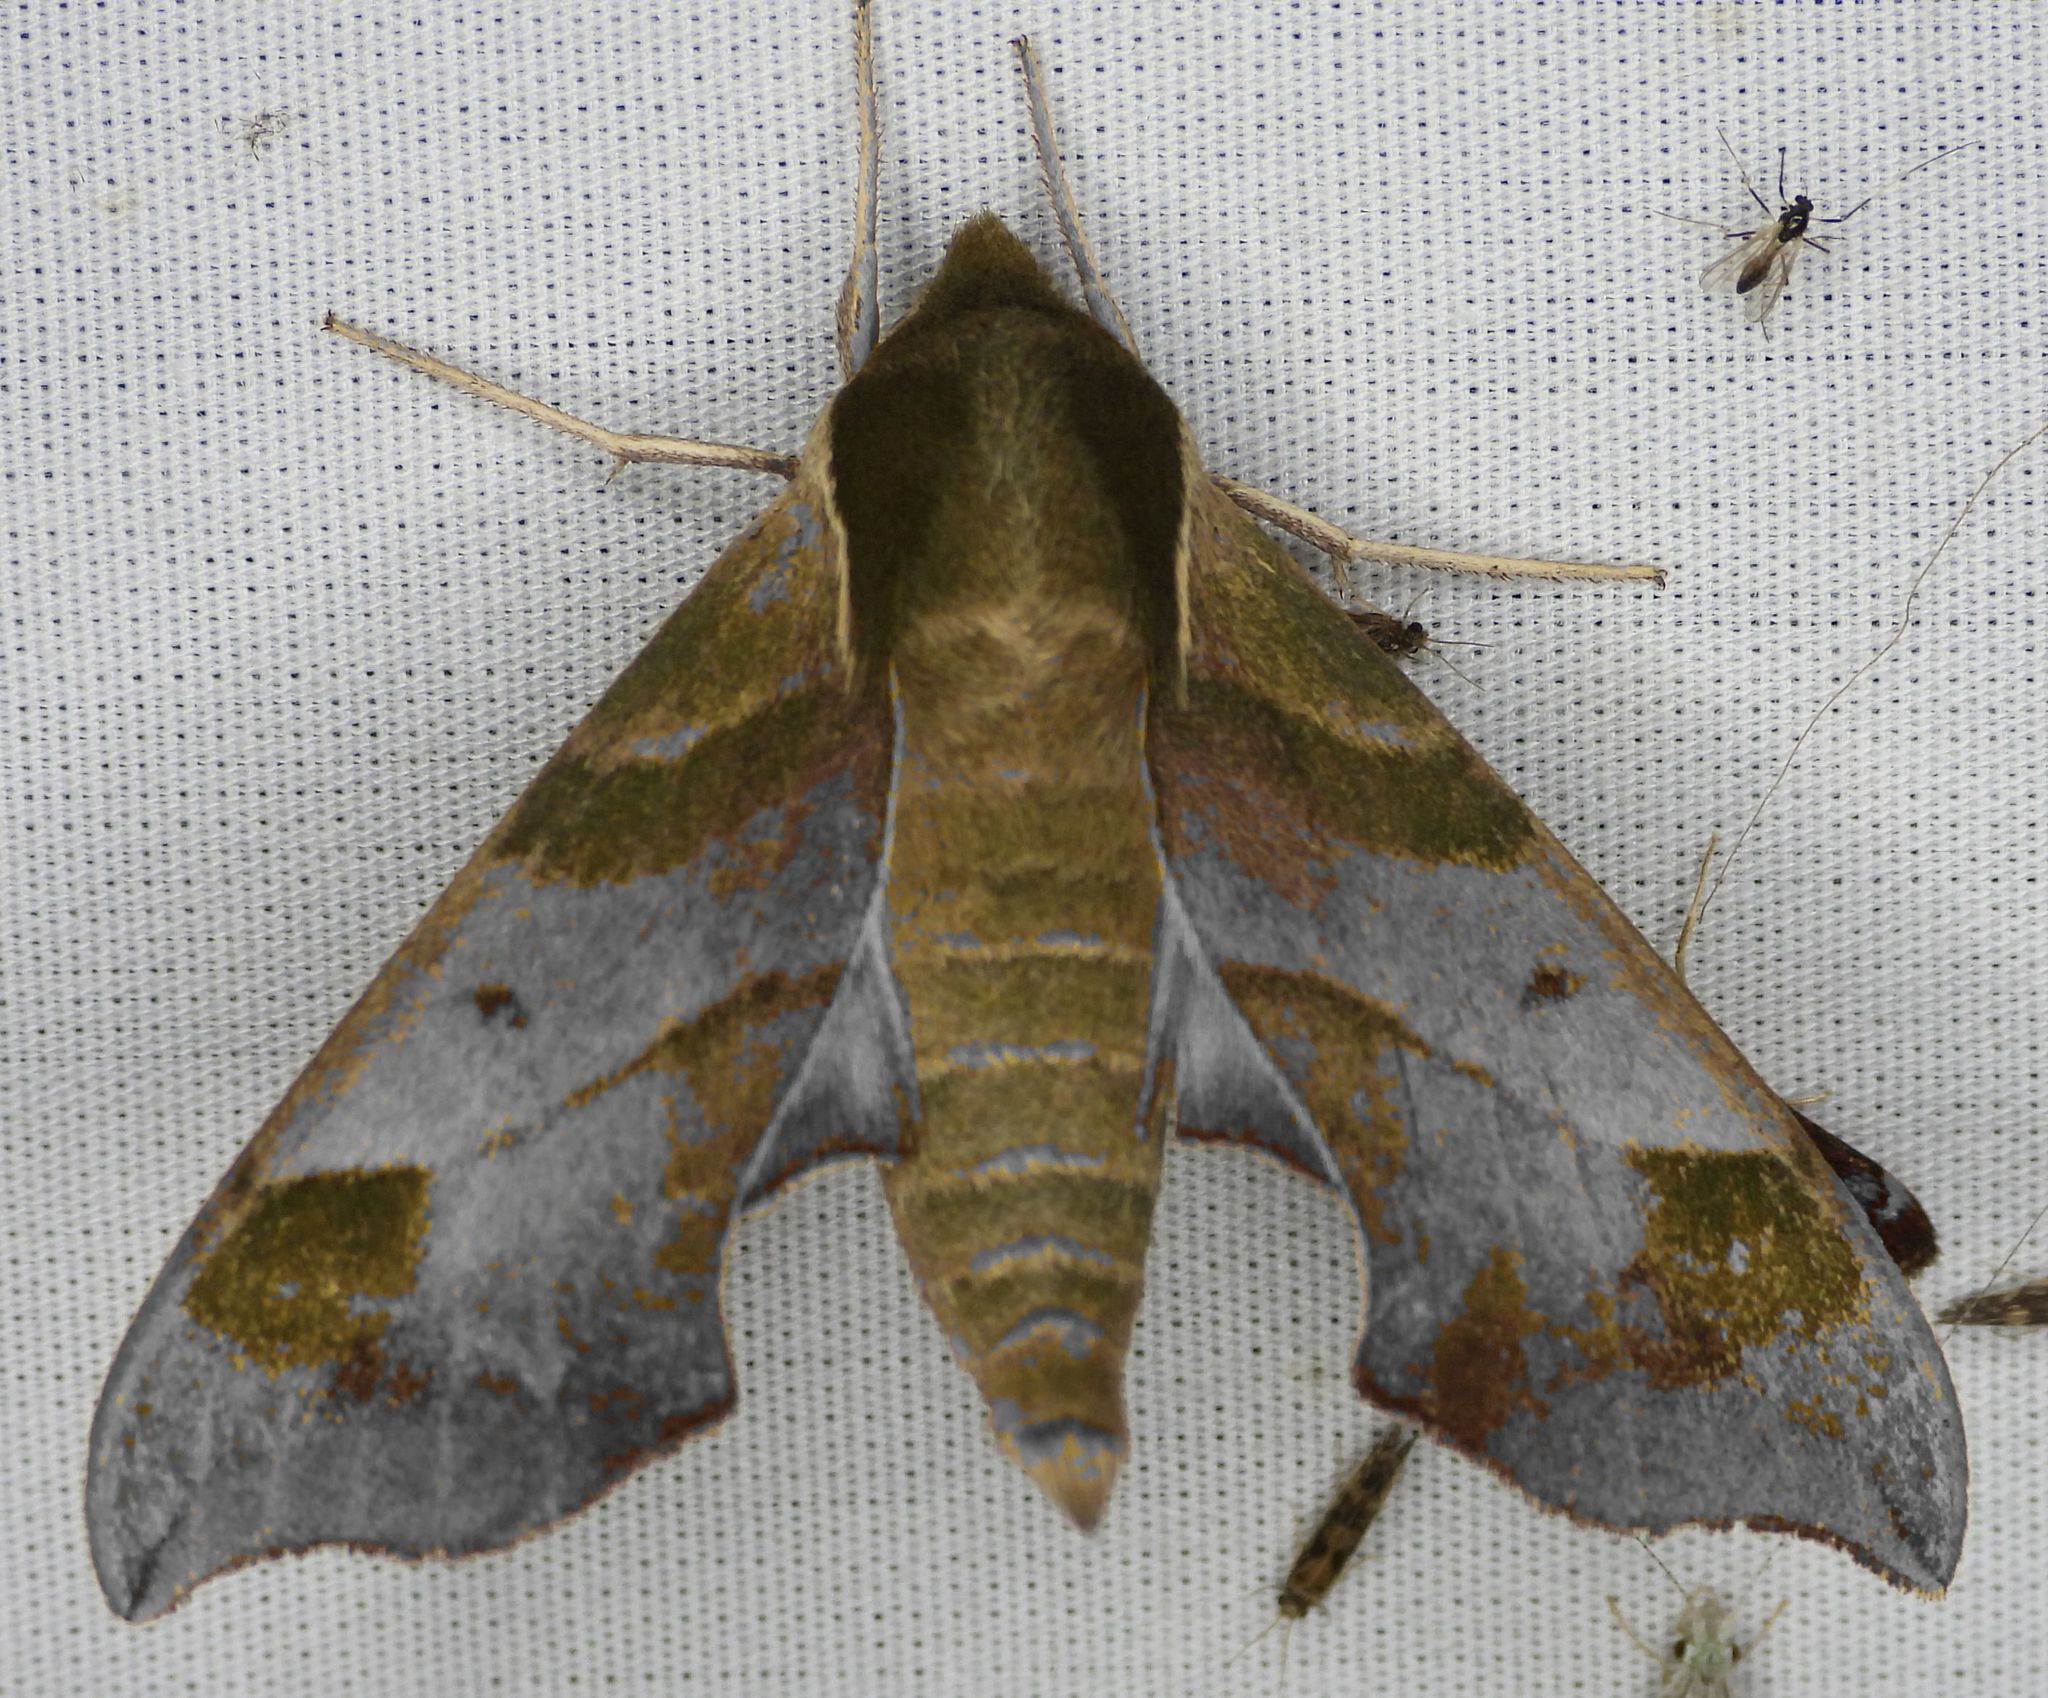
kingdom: Animalia
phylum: Arthropoda
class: Insecta
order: Lepidoptera
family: Sphingidae
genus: Darapsa
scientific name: Darapsa myron
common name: Hog sphinx
